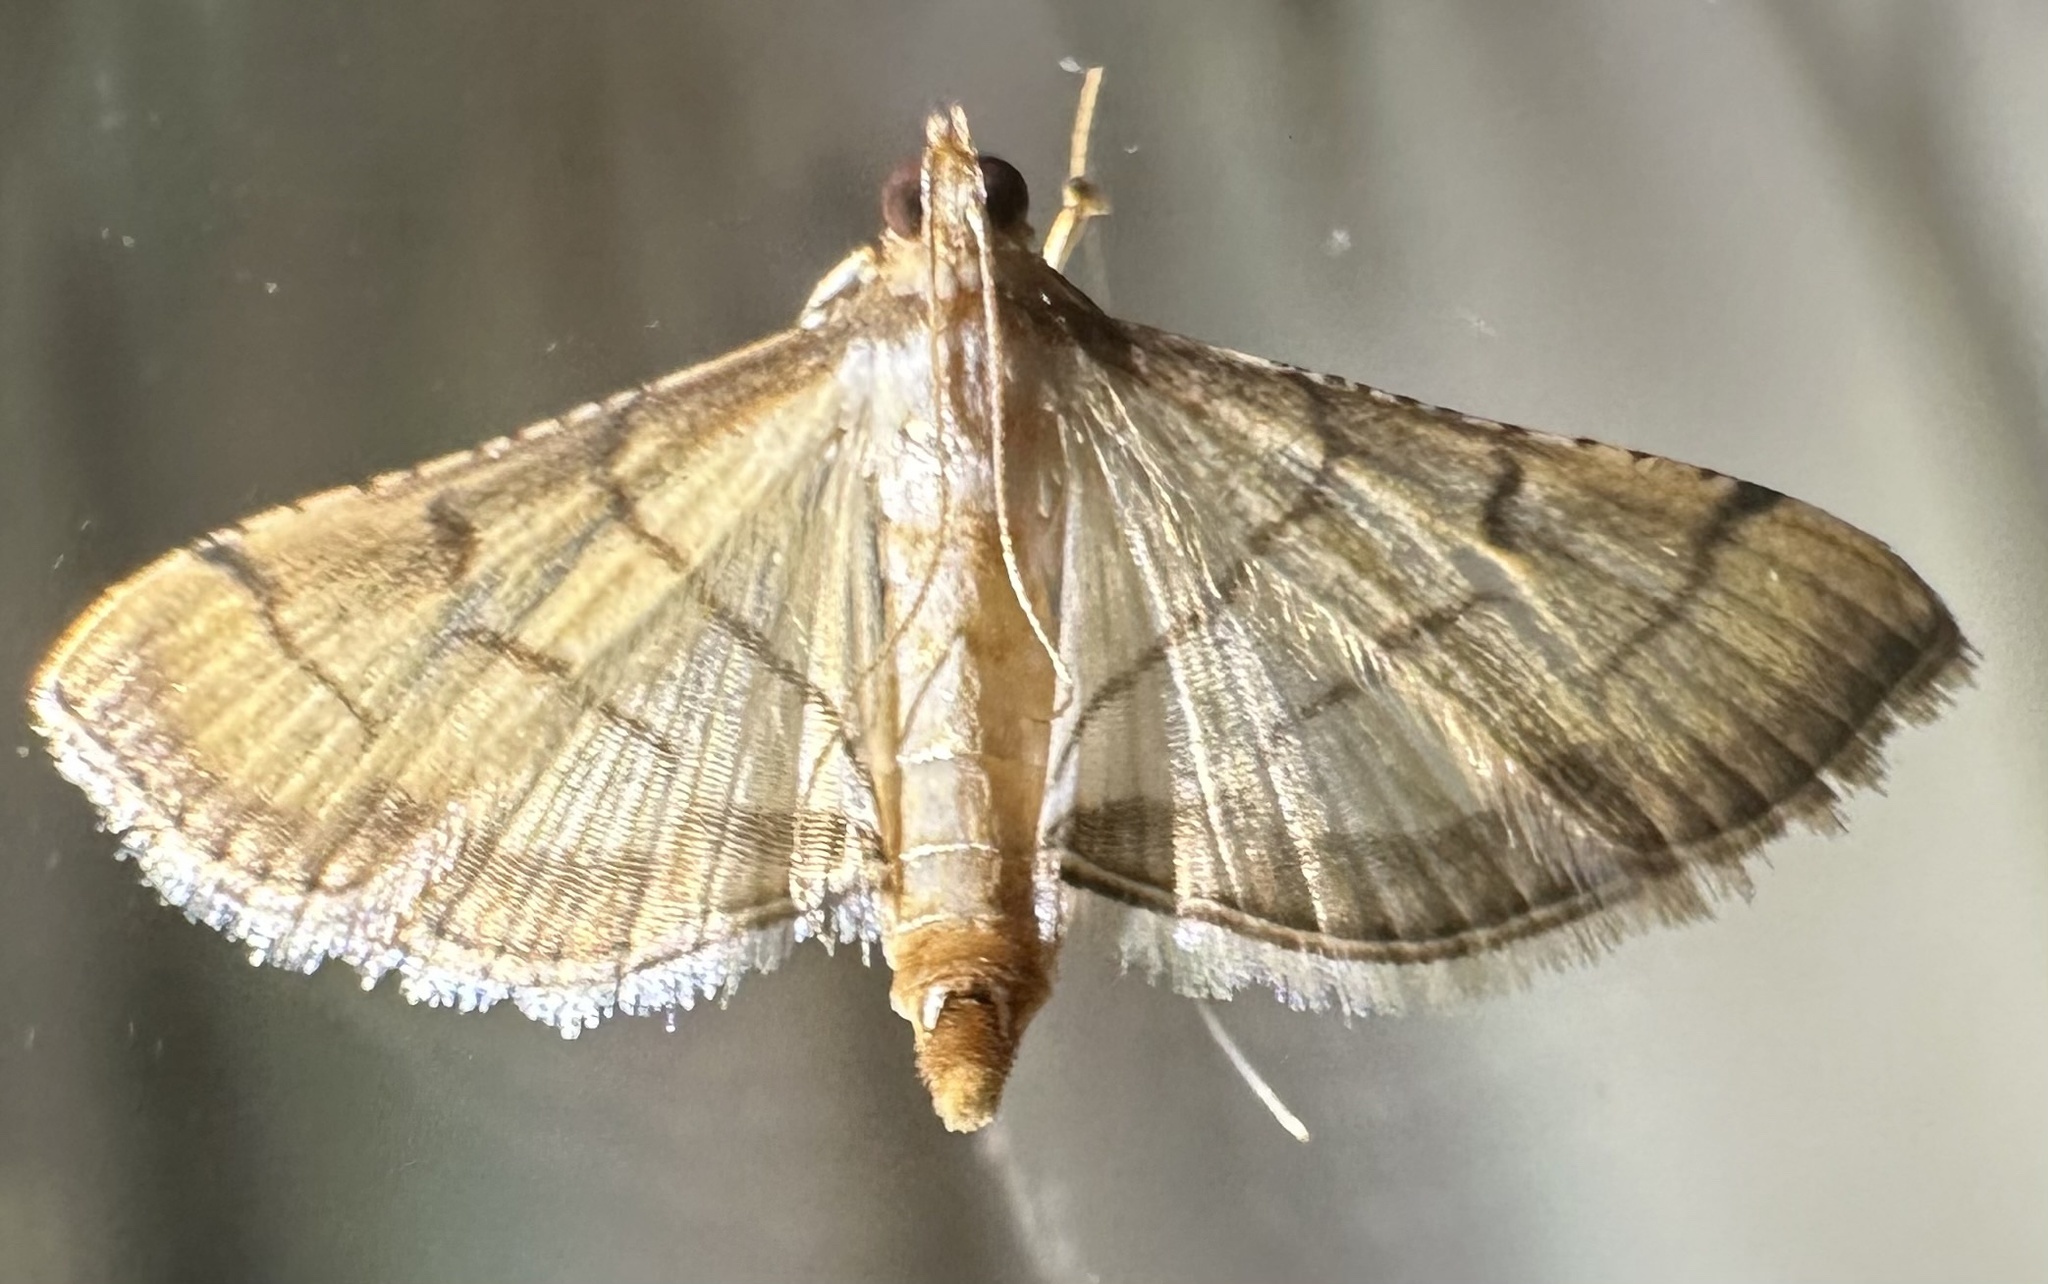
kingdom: Animalia
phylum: Arthropoda
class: Insecta
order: Lepidoptera
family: Crambidae
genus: Cnaphalocrocis
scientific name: Cnaphalocrocis poeyalis
